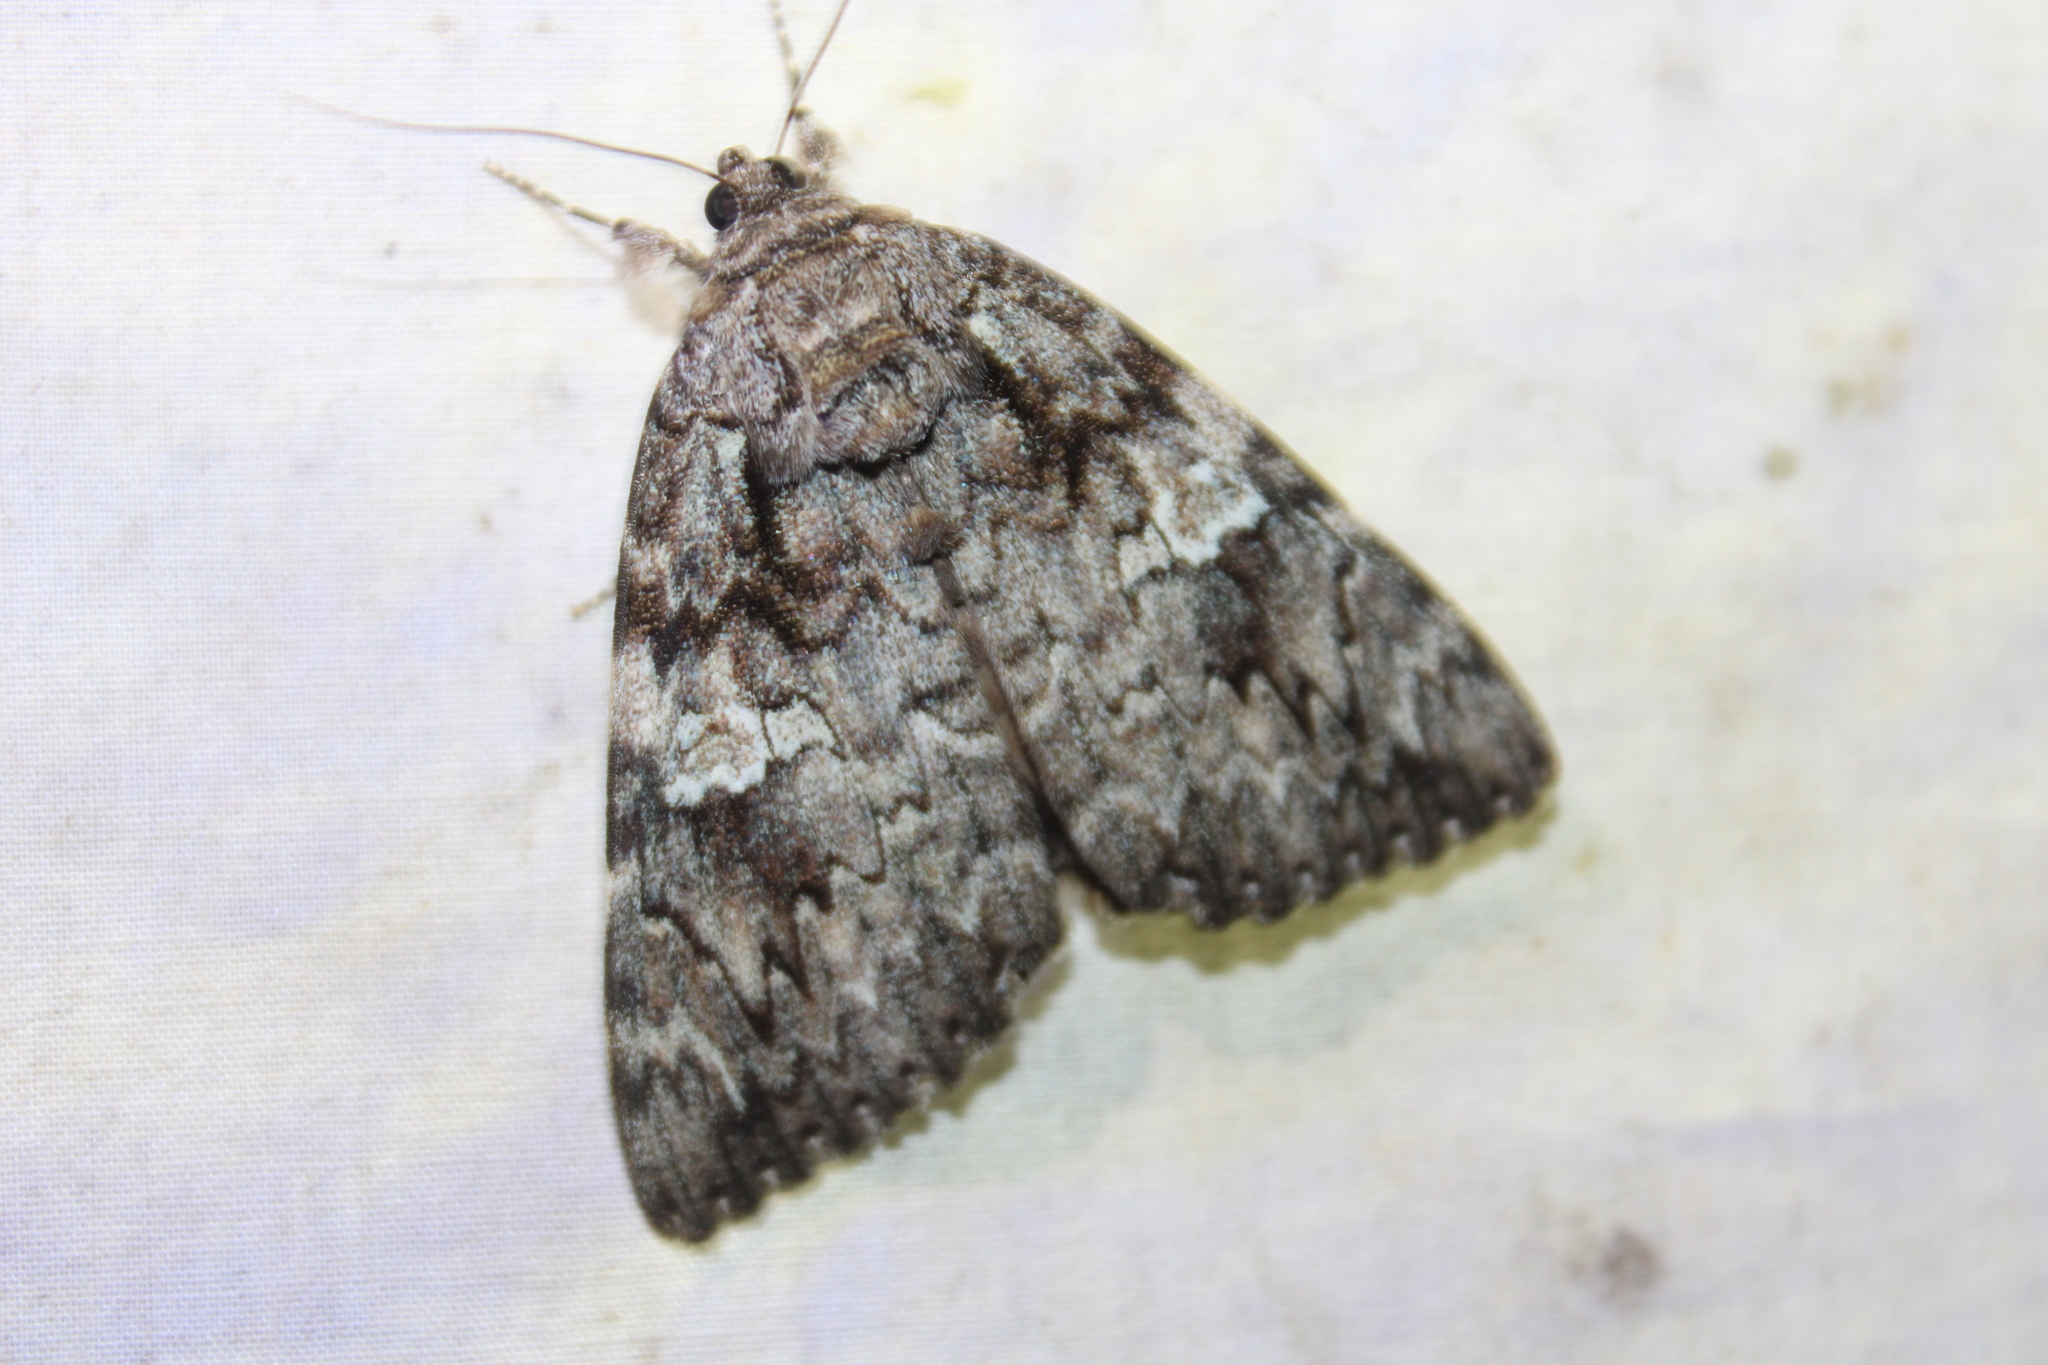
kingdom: Animalia
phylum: Arthropoda
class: Insecta
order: Lepidoptera
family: Erebidae
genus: Catocala
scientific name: Catocala ilia
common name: Ilia underwing
